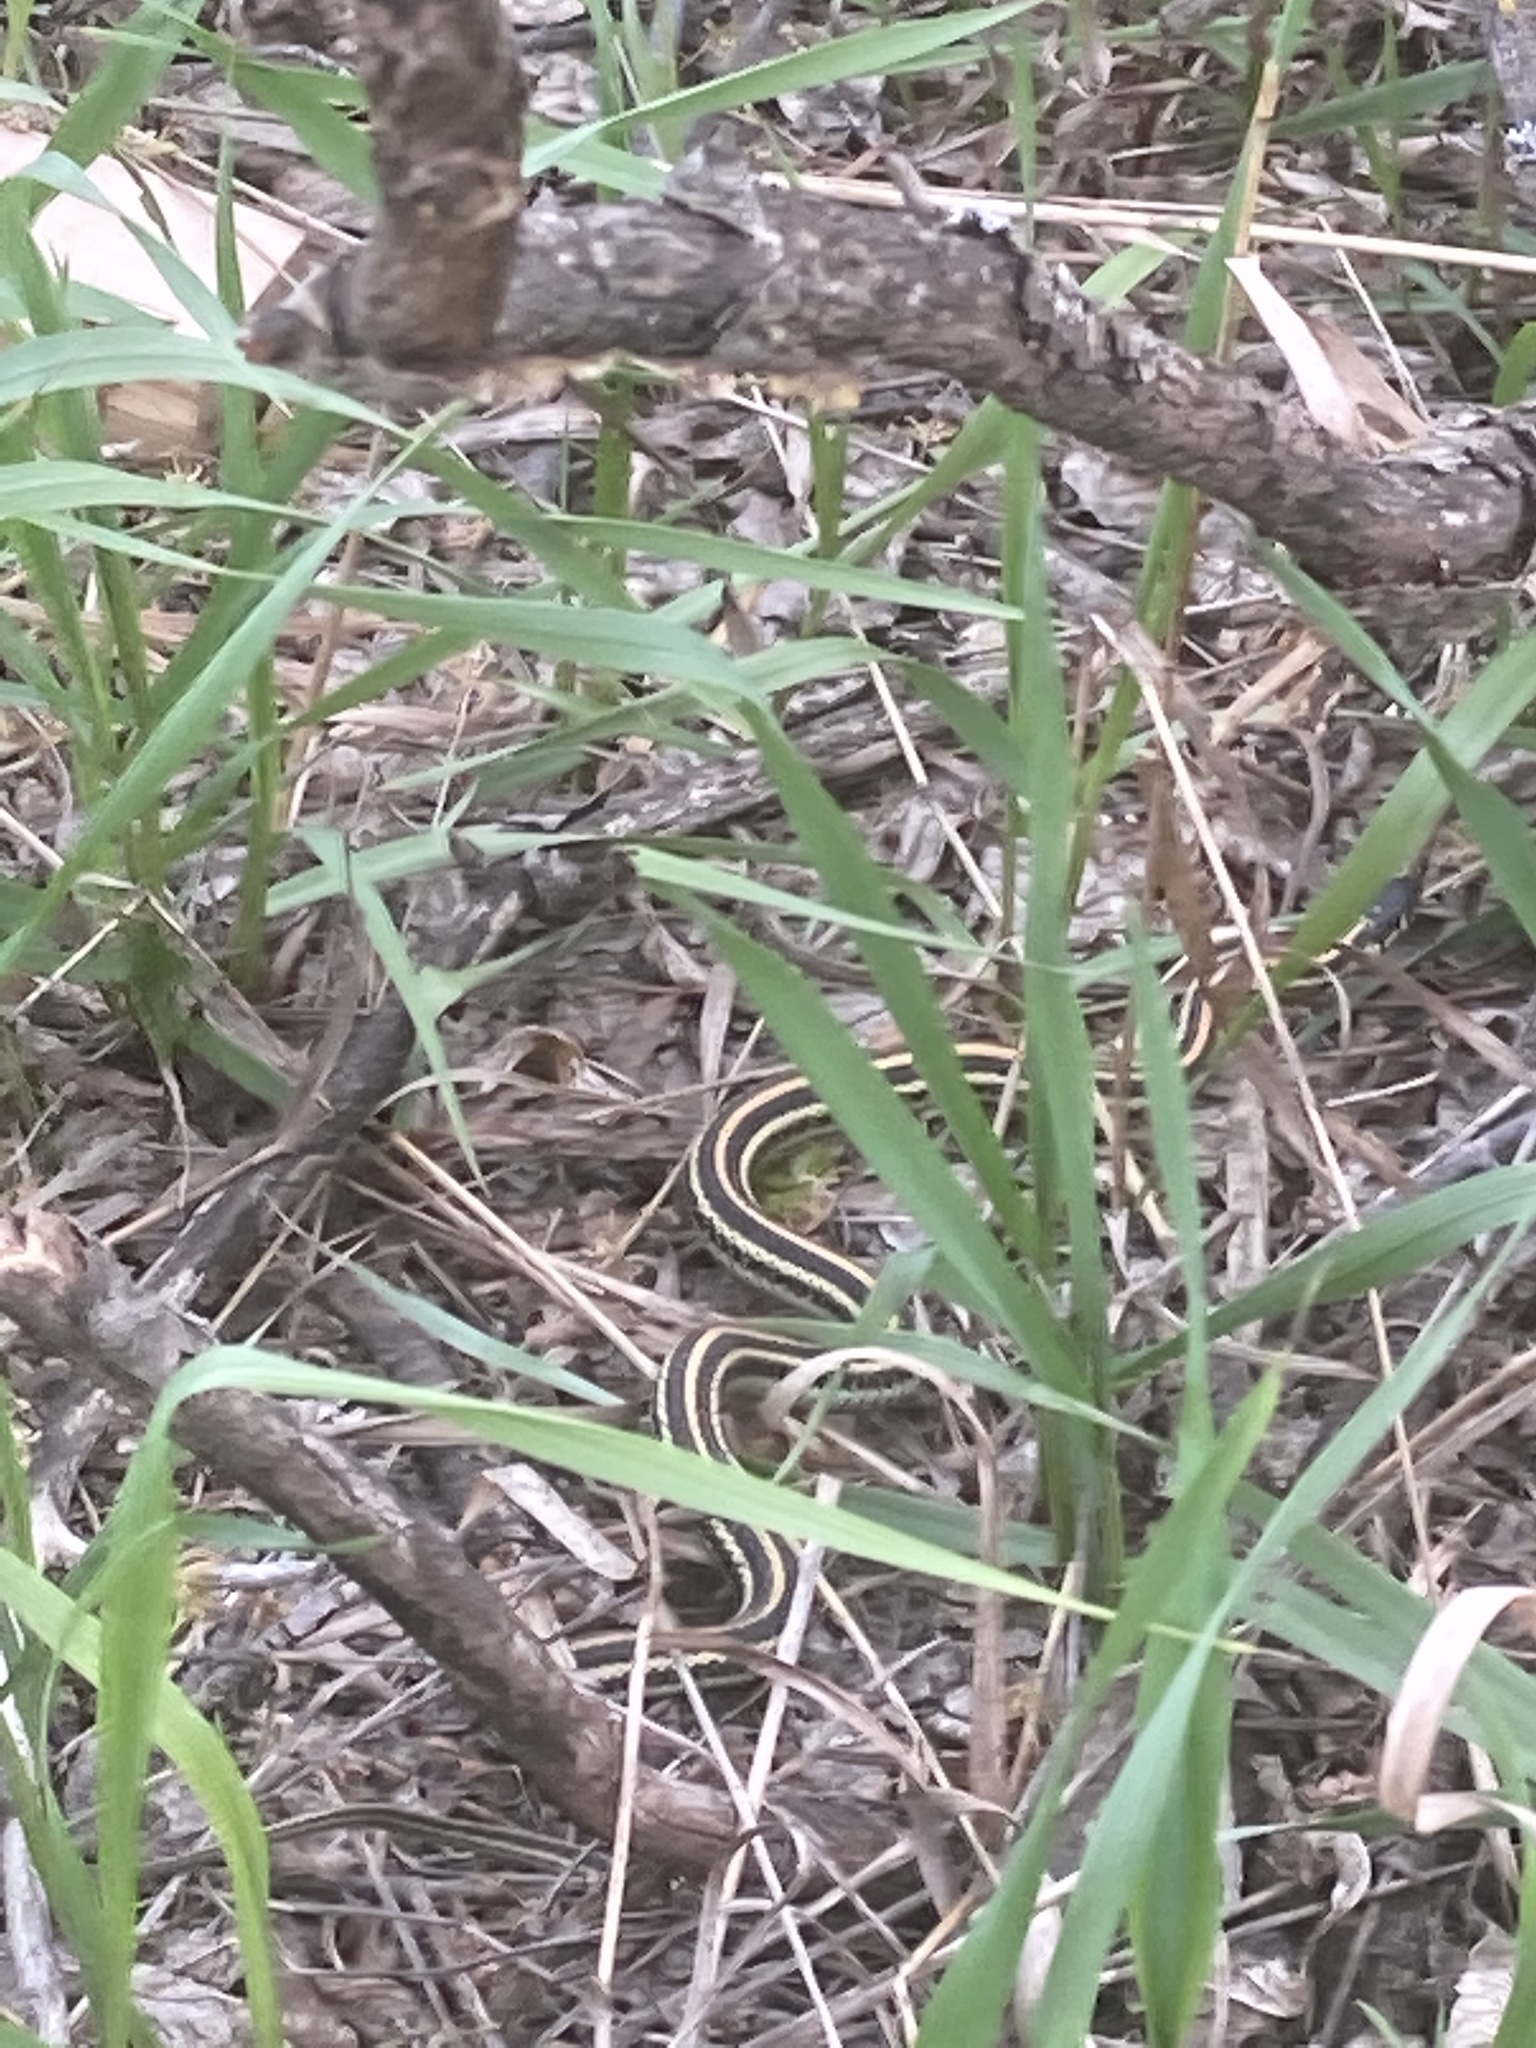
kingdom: Animalia
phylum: Chordata
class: Squamata
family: Colubridae
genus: Thamnophis
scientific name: Thamnophis radix
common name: Plains garter snake
